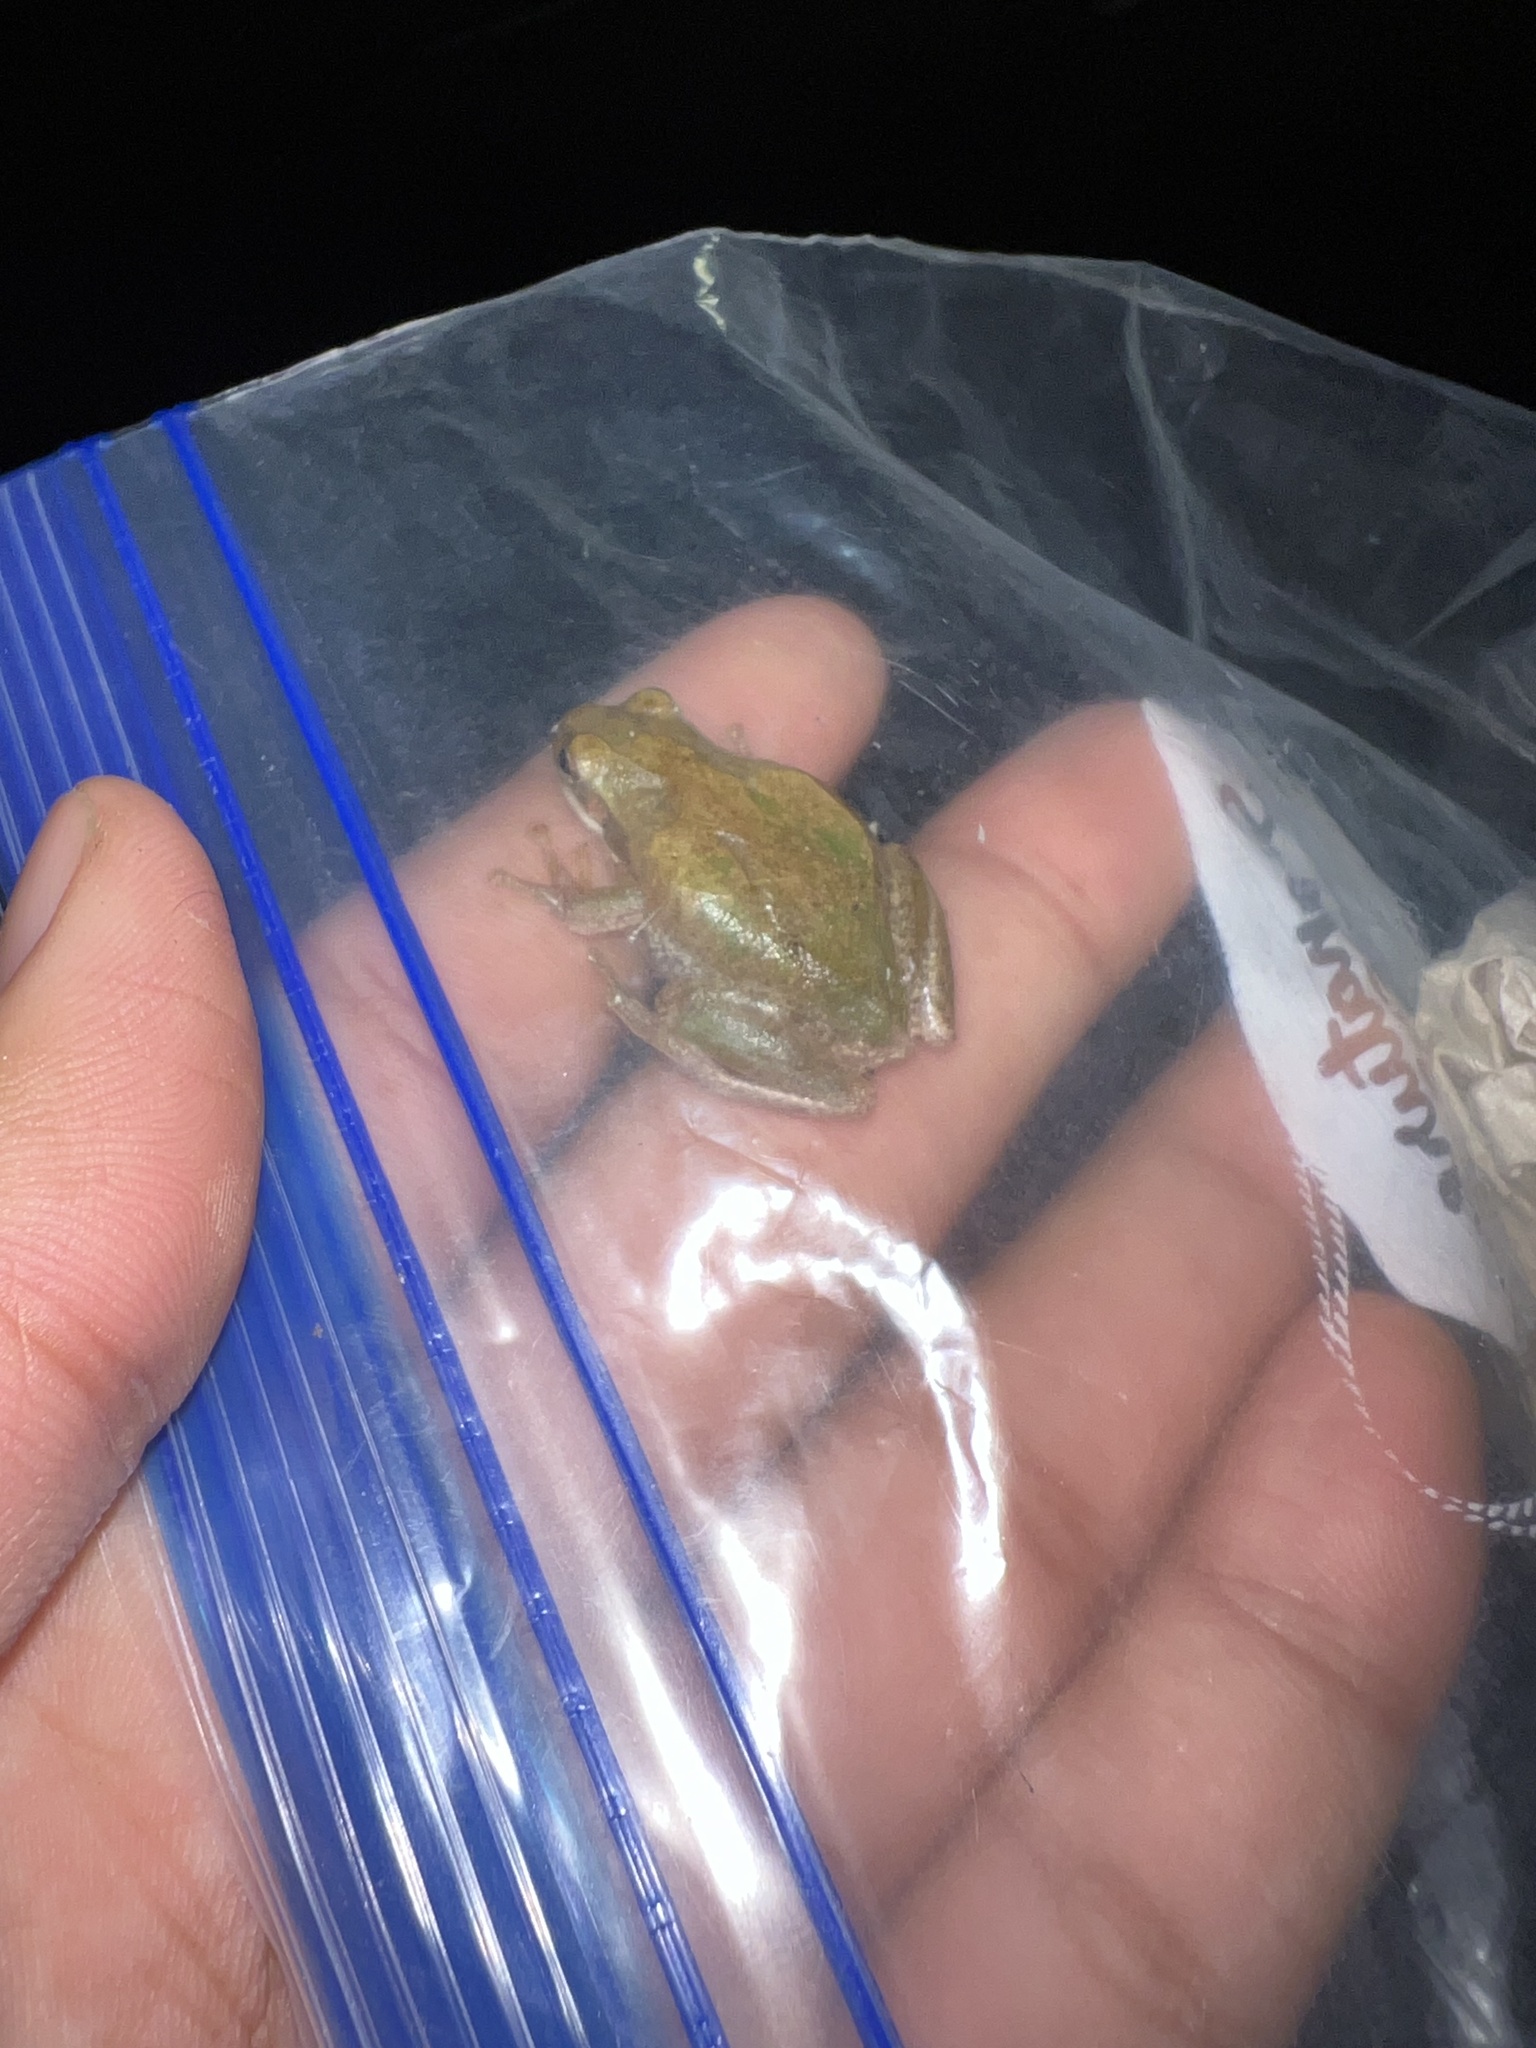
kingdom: Animalia
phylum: Chordata
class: Amphibia
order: Anura
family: Hylidae
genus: Dryophytes
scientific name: Dryophytes squirellus
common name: Squirrel treefrog
